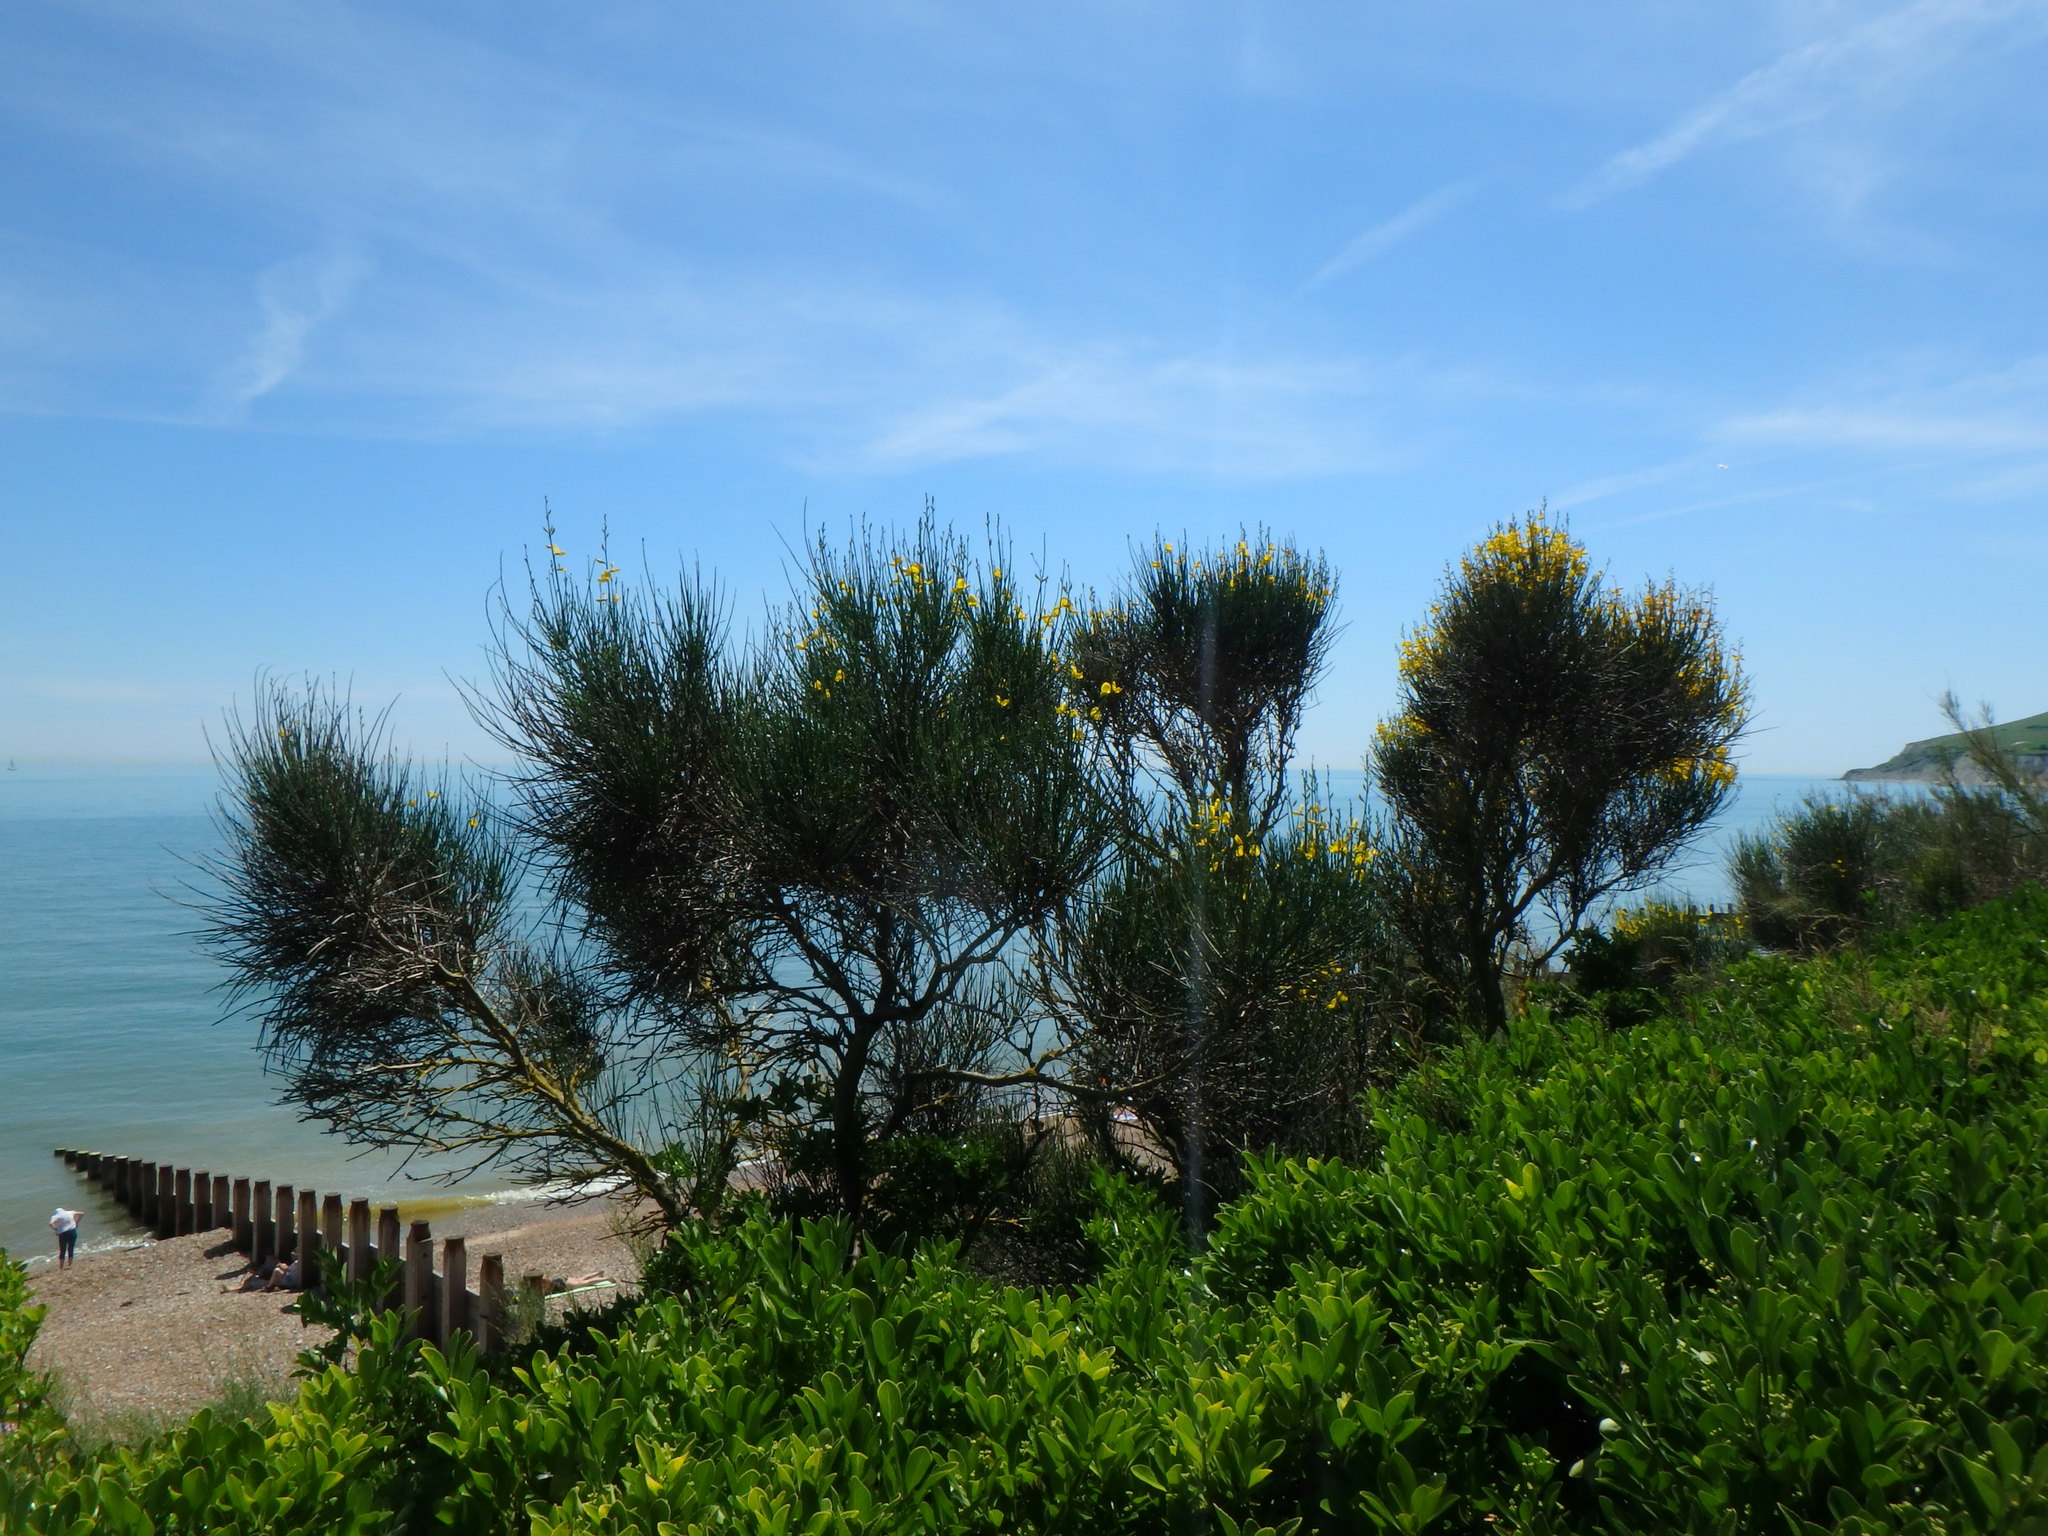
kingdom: Plantae
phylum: Tracheophyta
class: Magnoliopsida
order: Fabales
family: Fabaceae
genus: Spartium
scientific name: Spartium junceum
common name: Spanish broom
